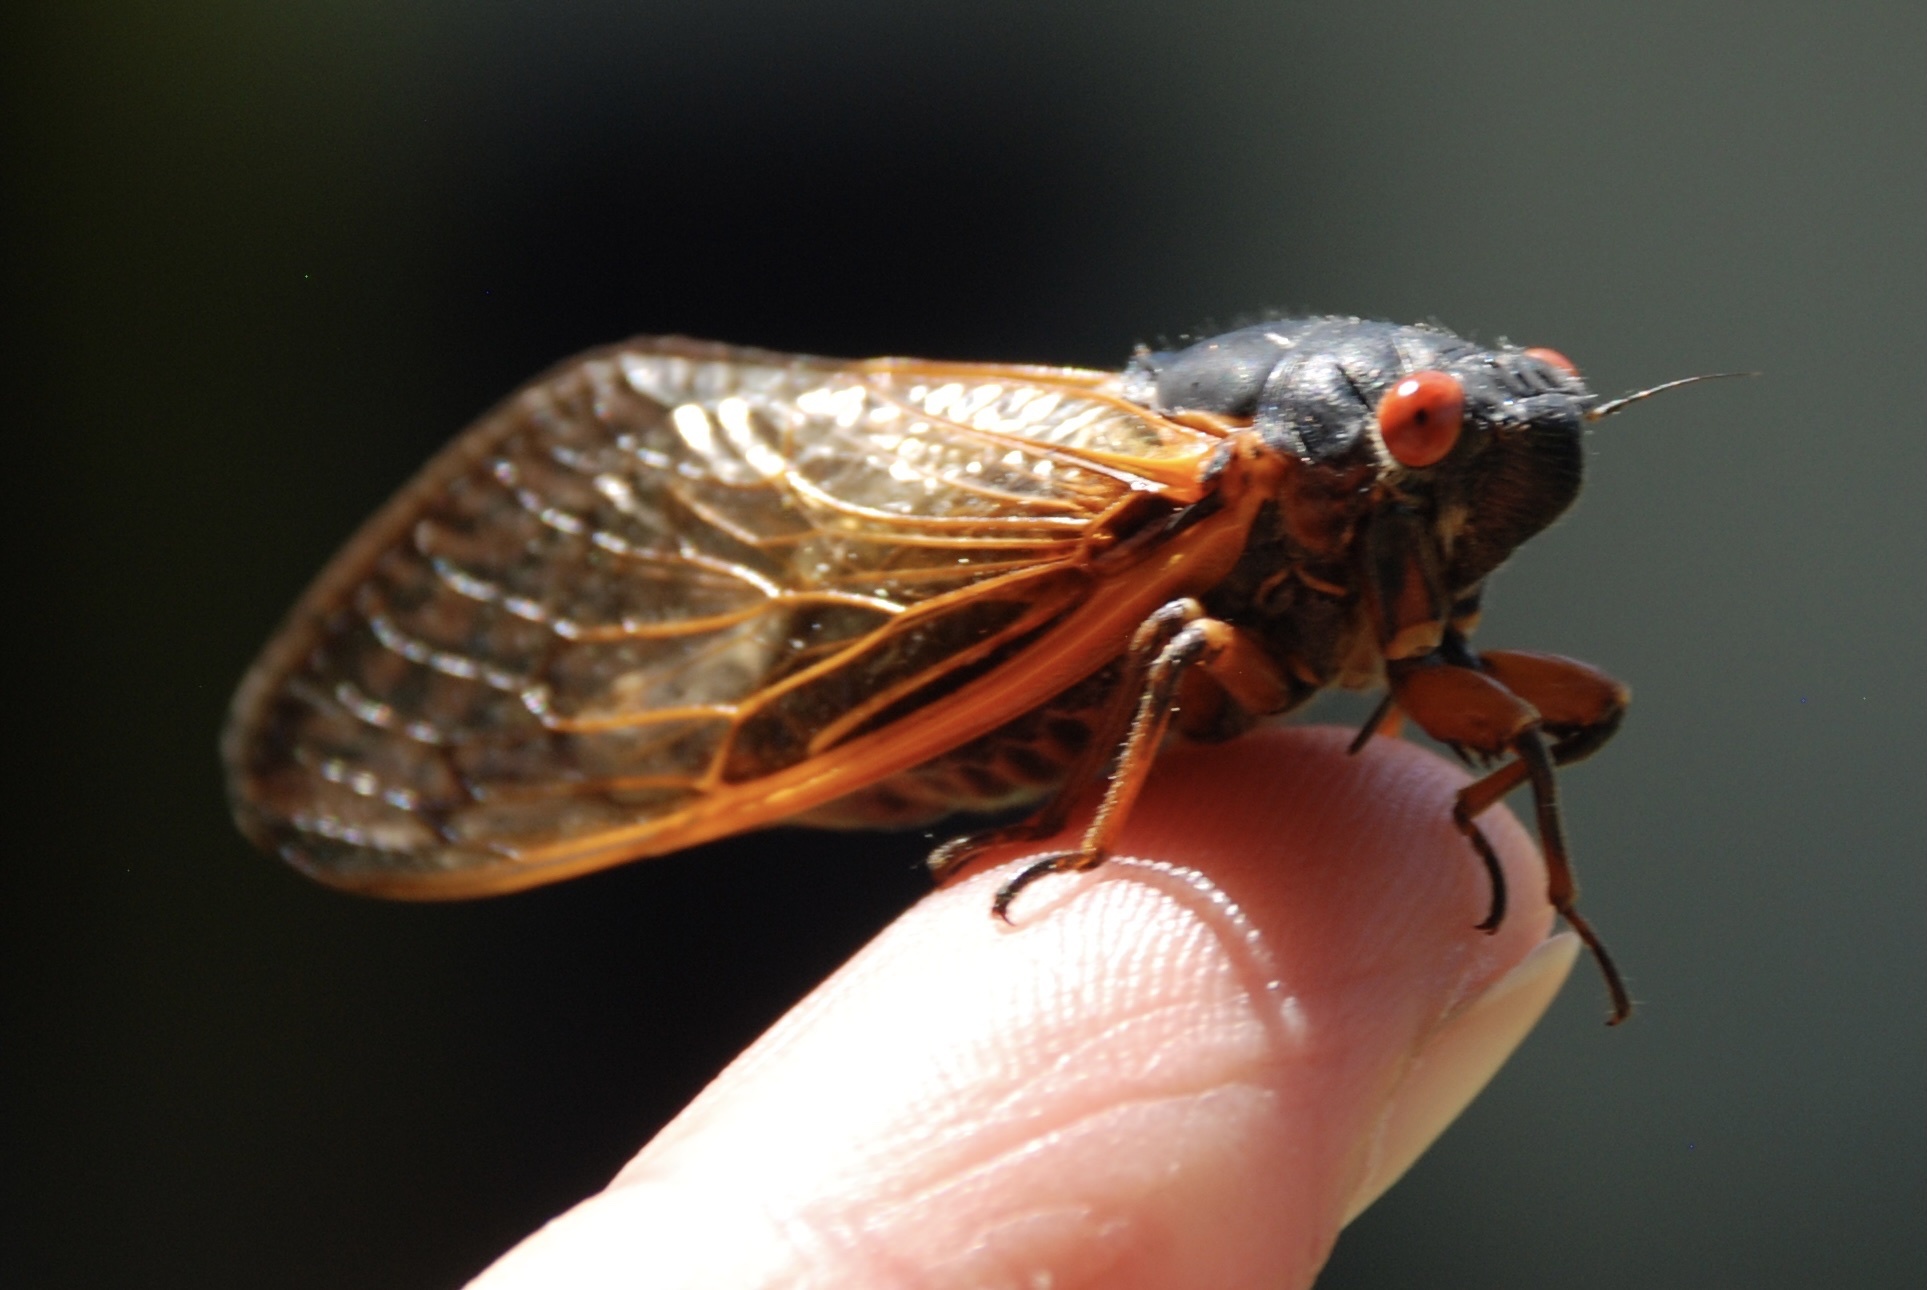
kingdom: Animalia
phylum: Arthropoda
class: Insecta
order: Hemiptera
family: Cicadidae
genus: Magicicada
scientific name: Magicicada septendecim
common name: Periodical cicada
